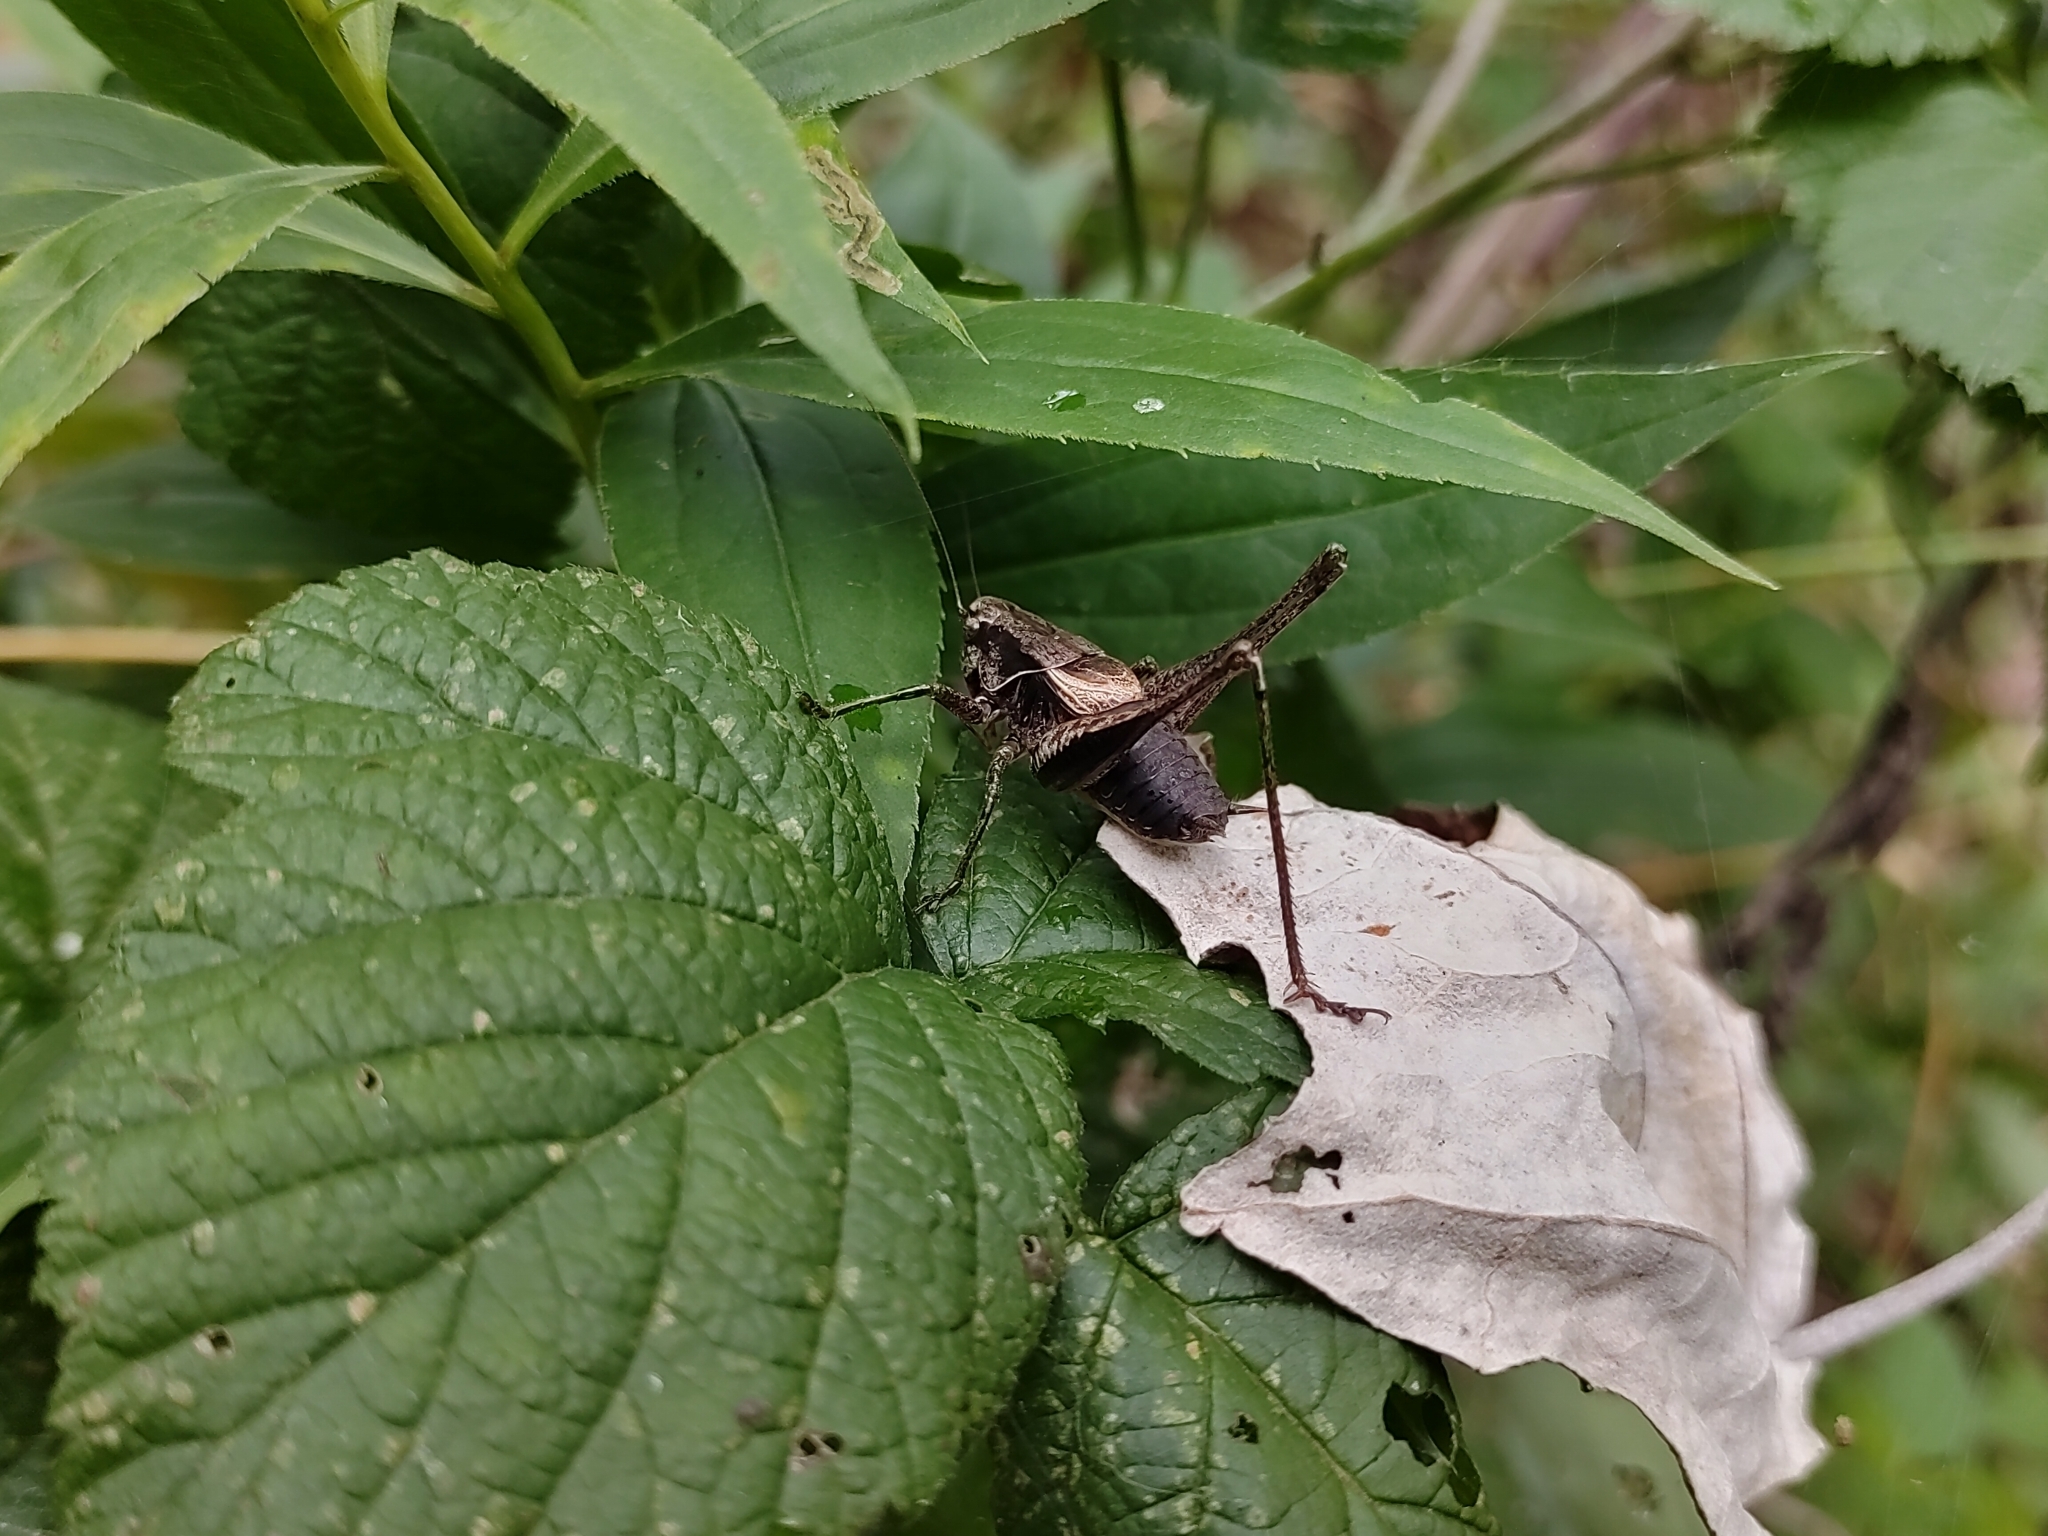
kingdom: Animalia
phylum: Arthropoda
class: Insecta
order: Orthoptera
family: Tettigoniidae
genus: Pholidoptera
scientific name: Pholidoptera griseoaptera
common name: Dark bush-cricket
